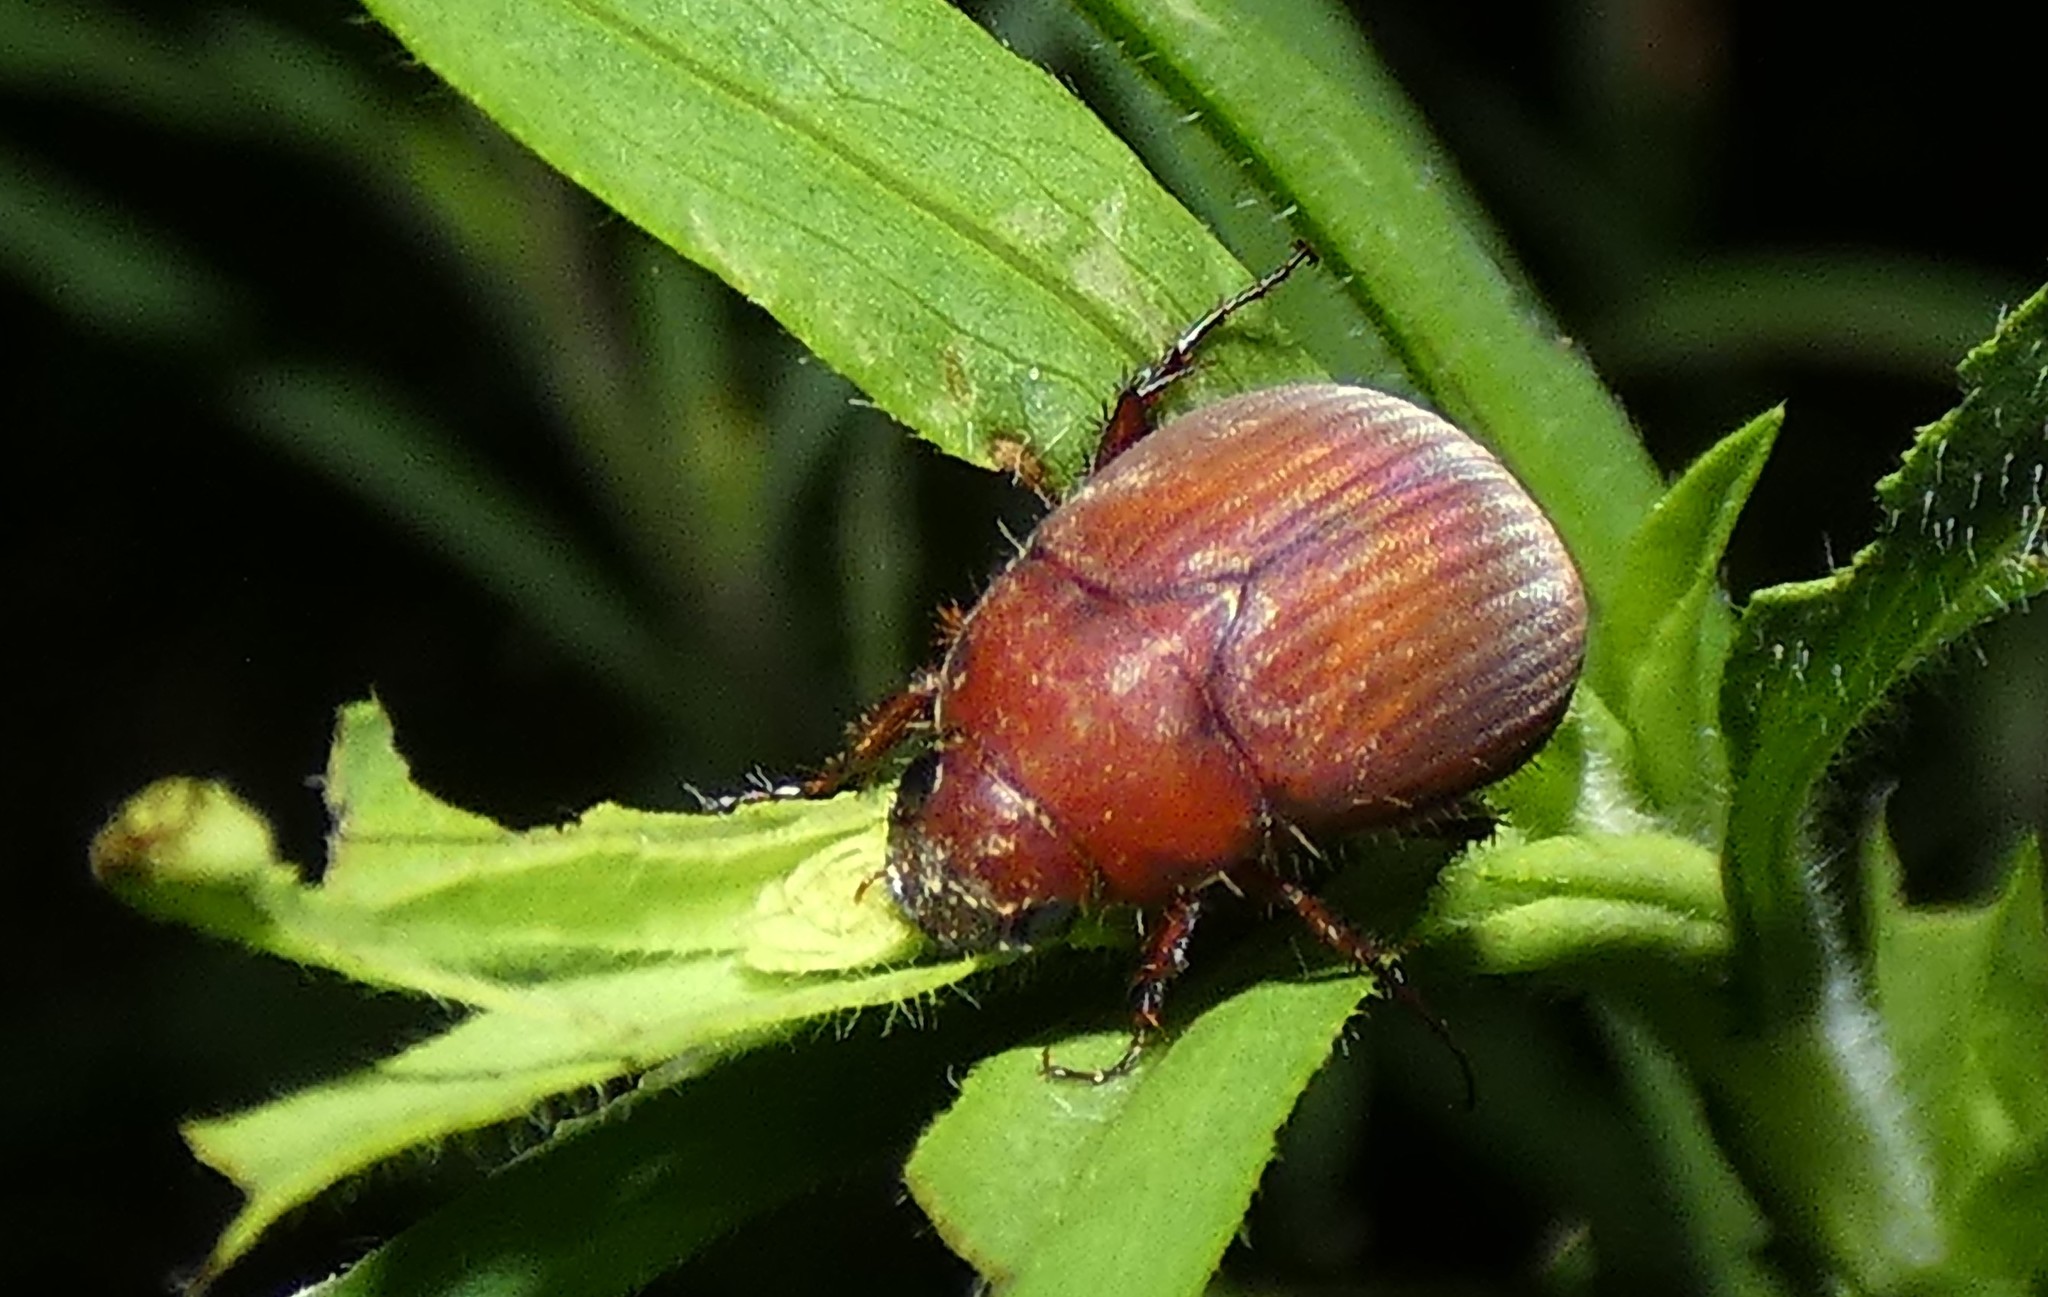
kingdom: Animalia
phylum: Arthropoda
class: Insecta
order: Coleoptera
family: Scarabaeidae
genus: Maladera
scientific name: Maladera formosae
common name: Asiatic garden beetle
